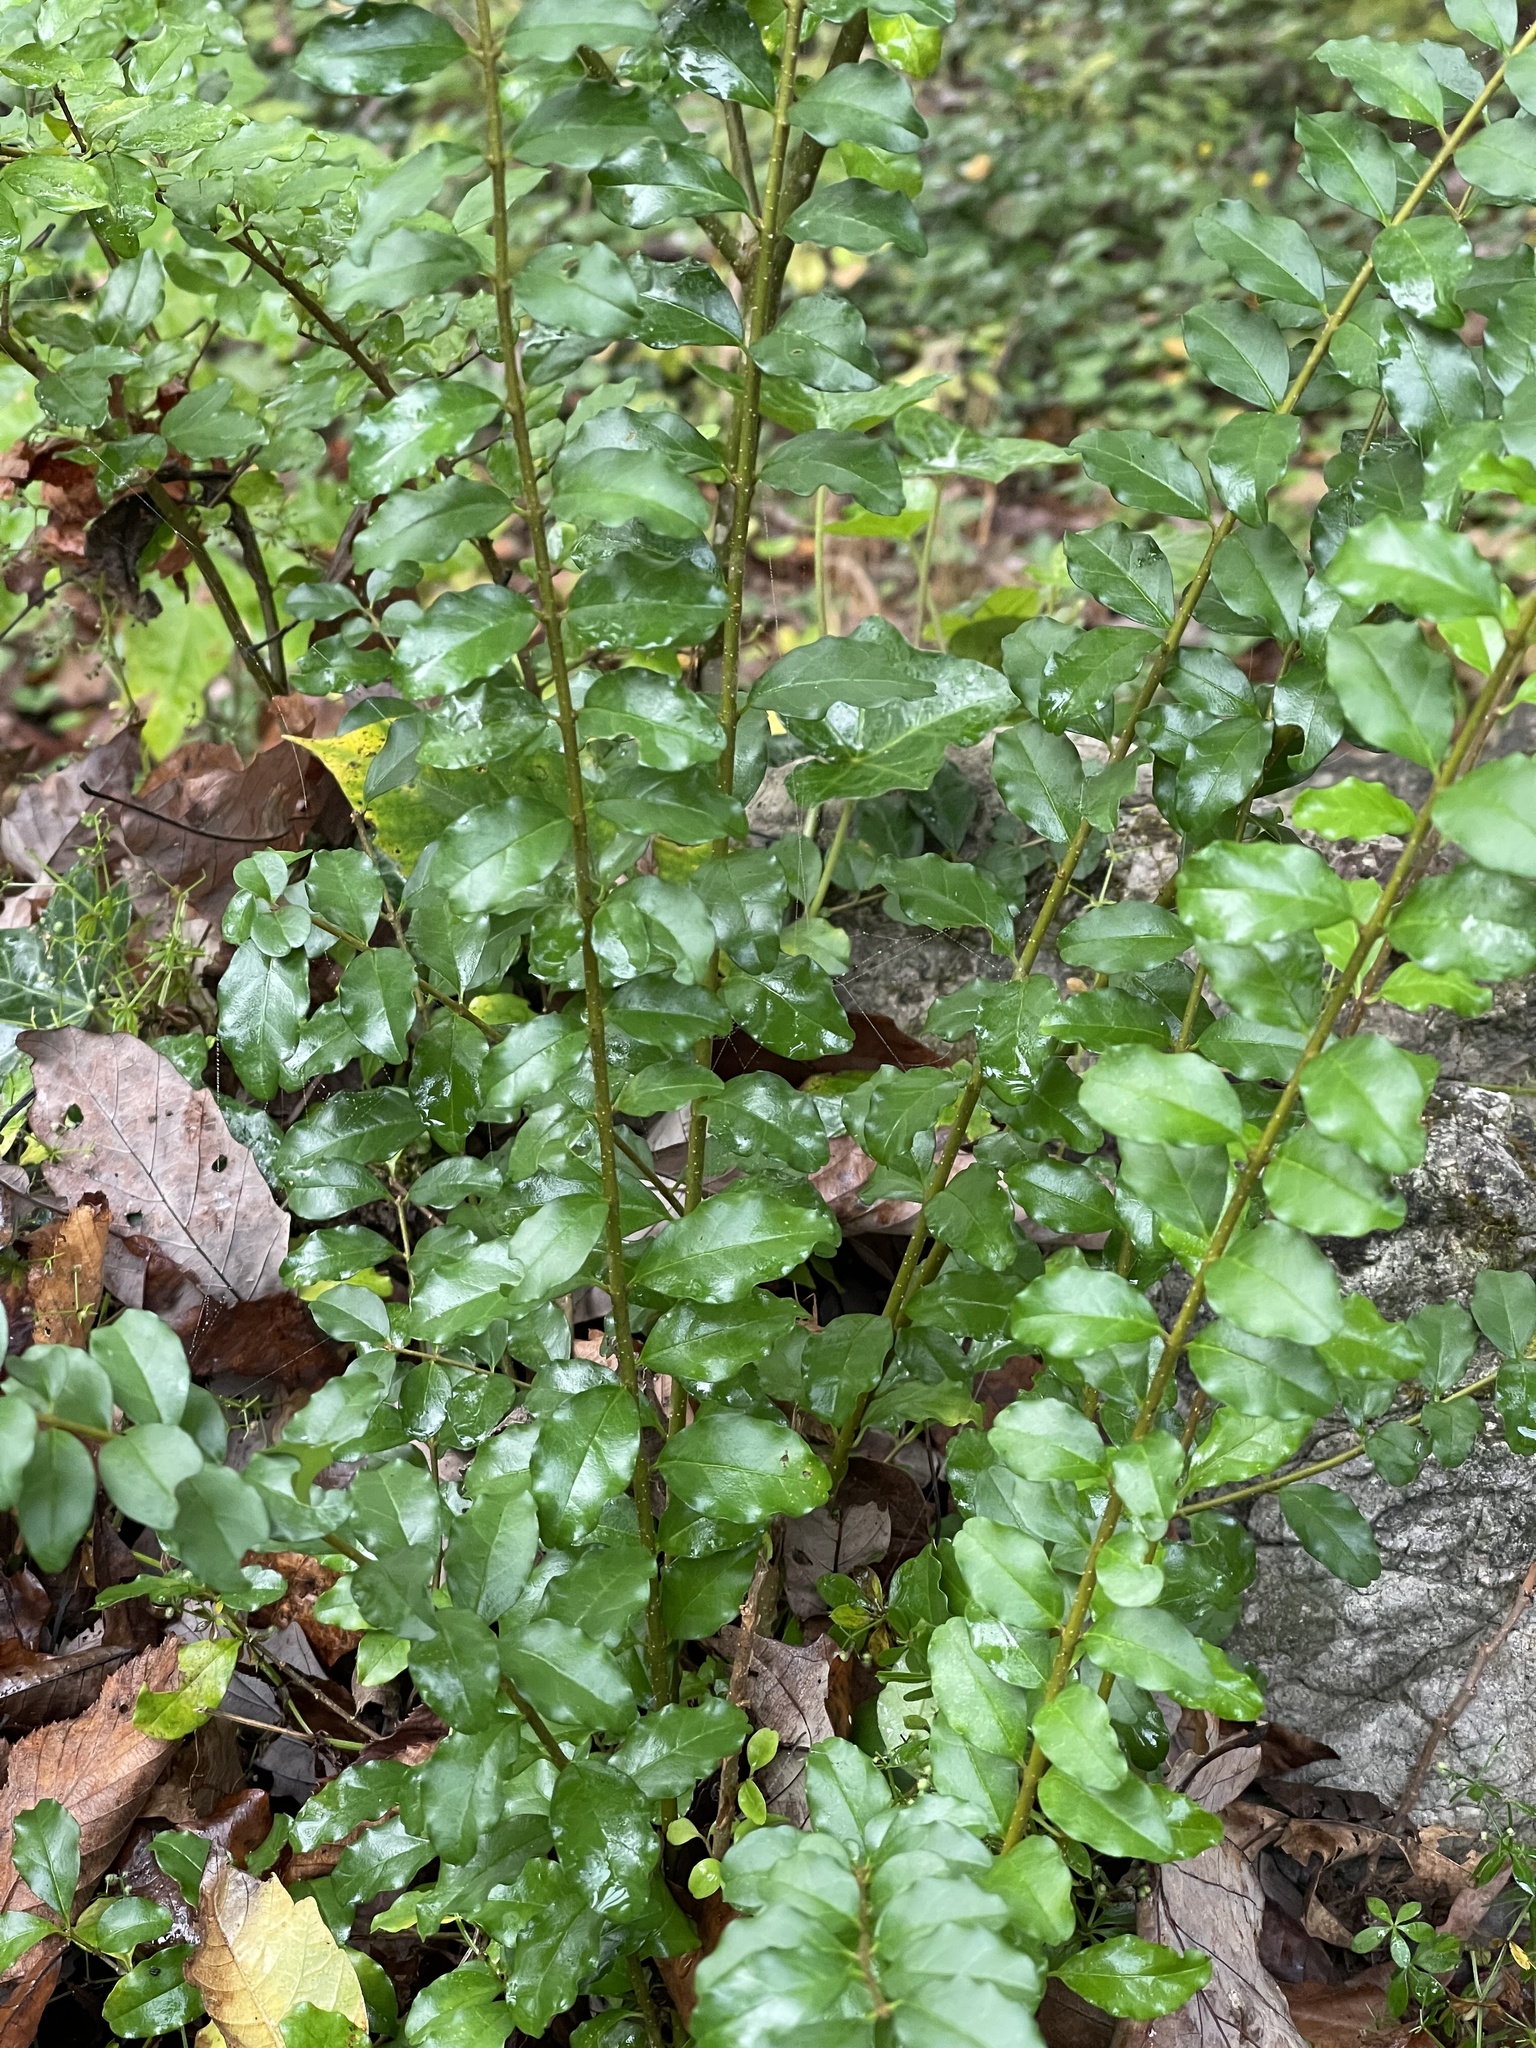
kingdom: Plantae
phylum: Tracheophyta
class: Magnoliopsida
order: Lamiales
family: Oleaceae
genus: Ligustrum
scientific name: Ligustrum sinense
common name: Chinese privet
